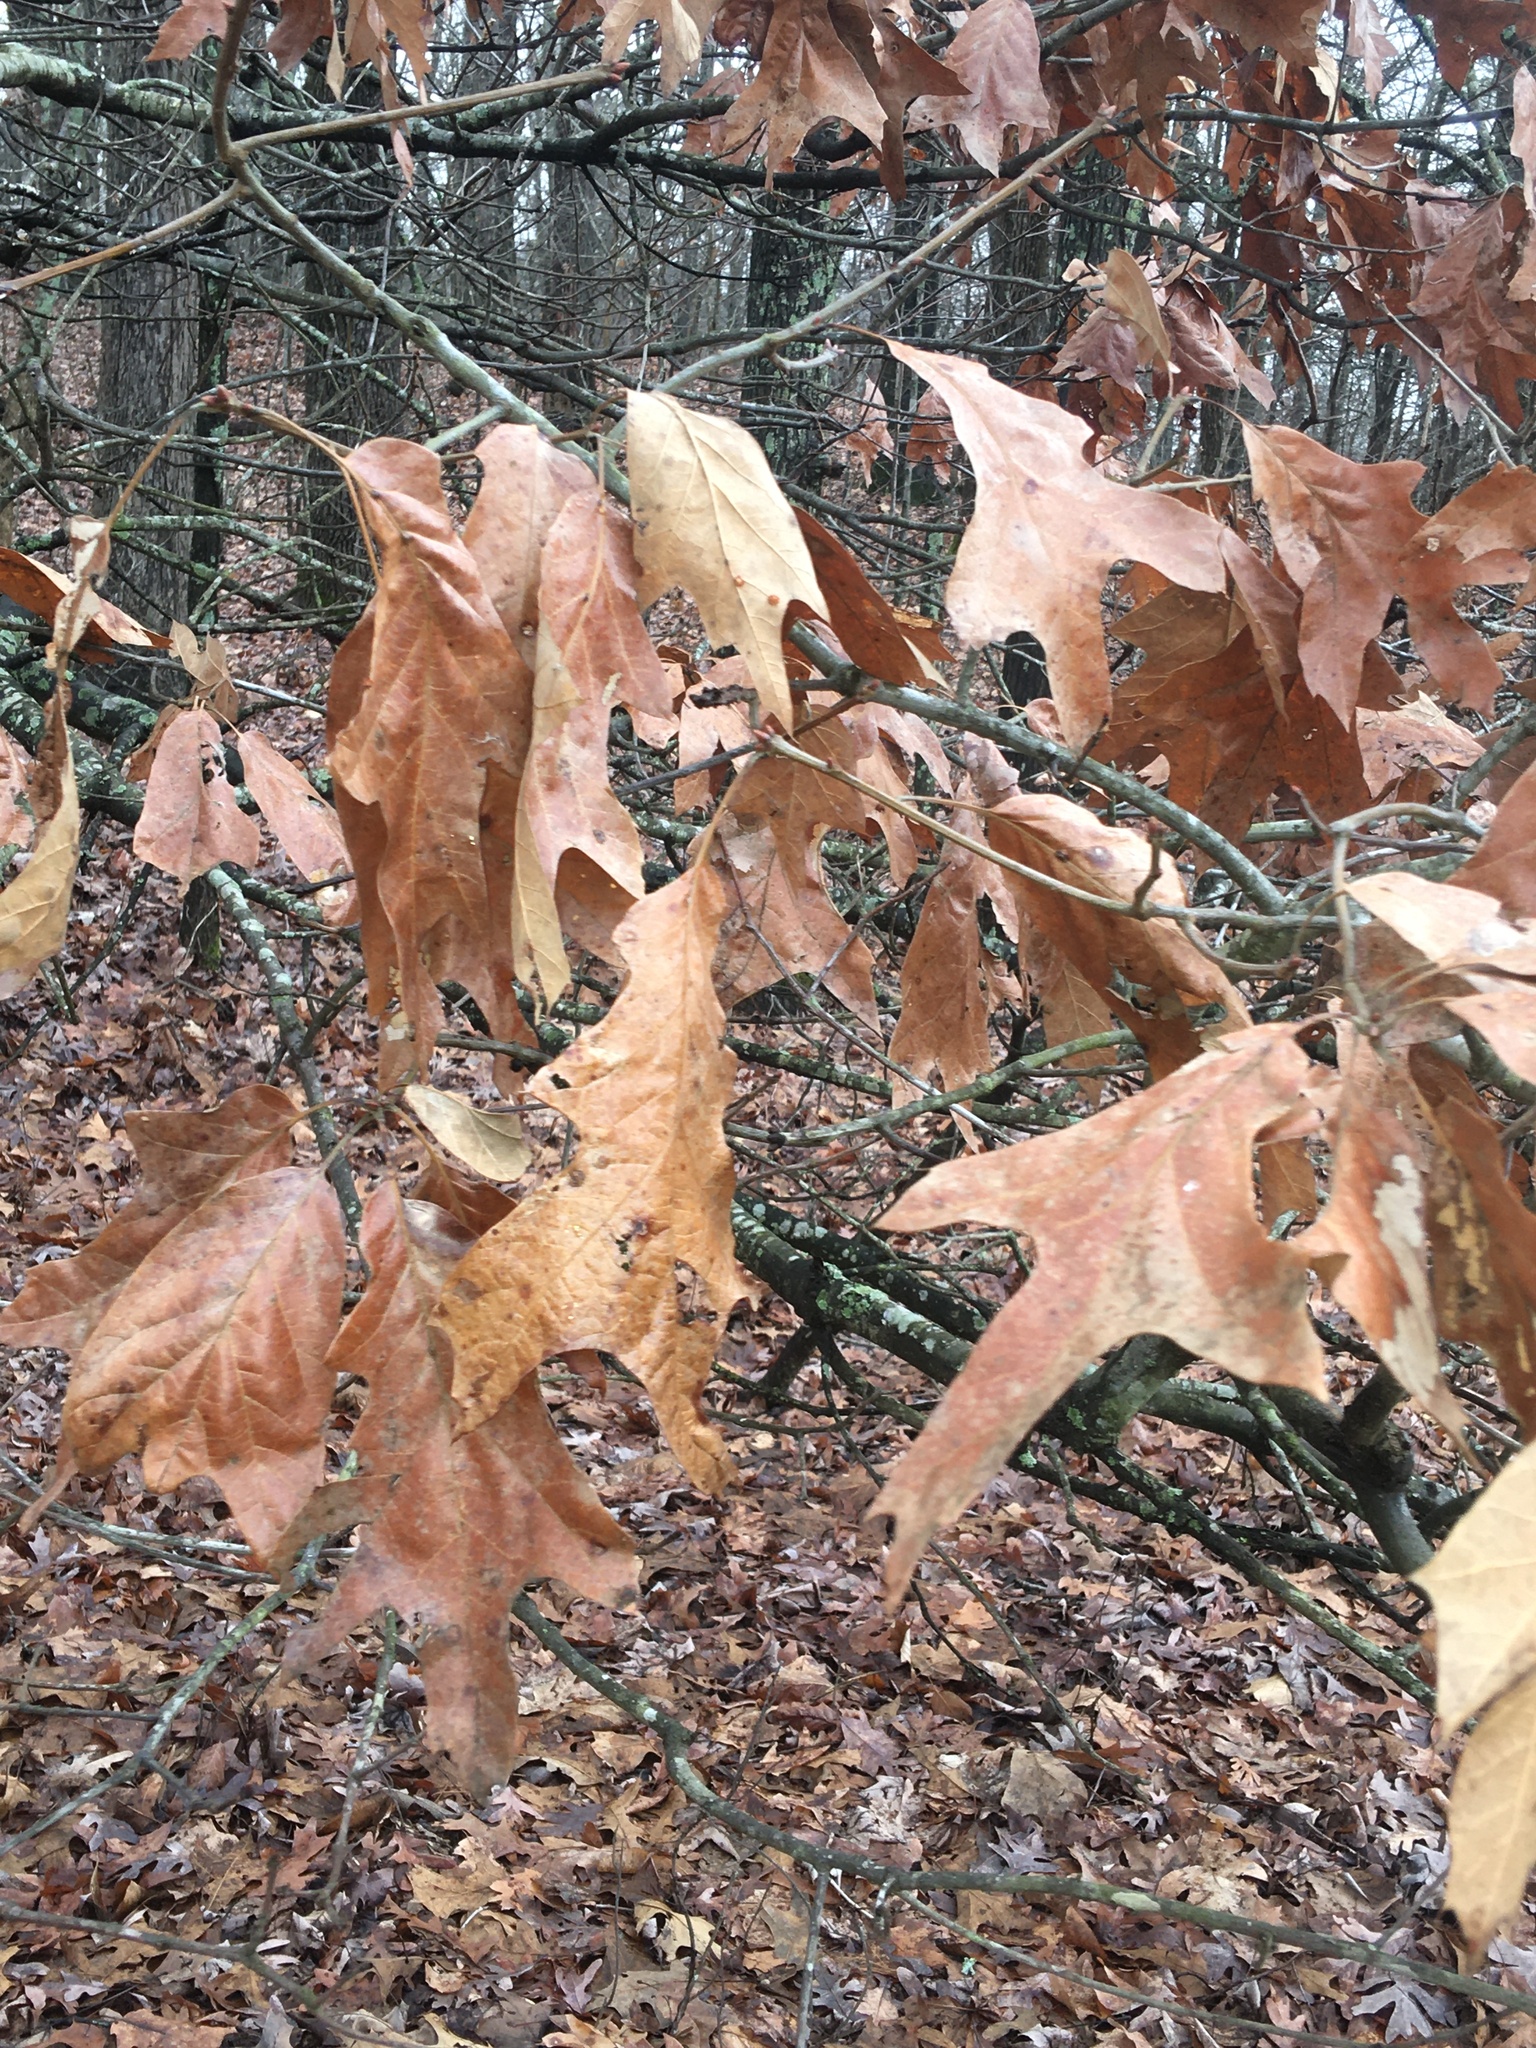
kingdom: Plantae
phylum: Tracheophyta
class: Magnoliopsida
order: Fagales
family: Fagaceae
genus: Quercus
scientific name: Quercus falcata
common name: Southern red oak
